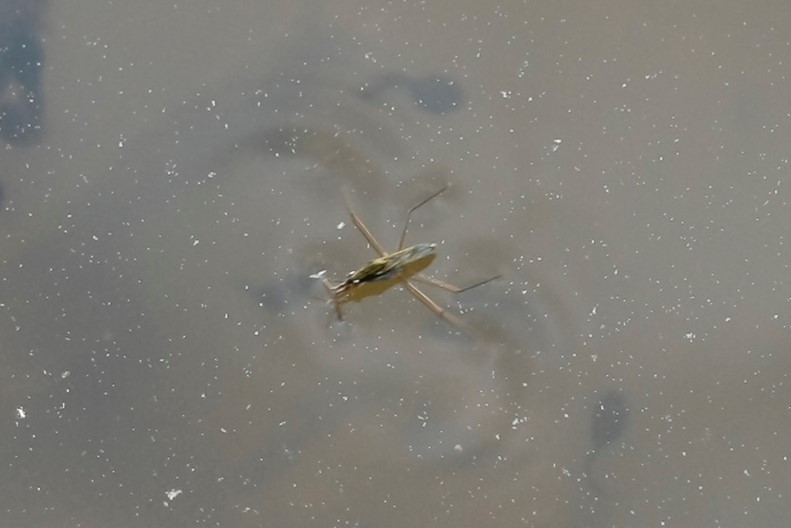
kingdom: Animalia
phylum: Arthropoda
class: Insecta
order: Hemiptera
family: Gerridae
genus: Gerris
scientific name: Gerris
